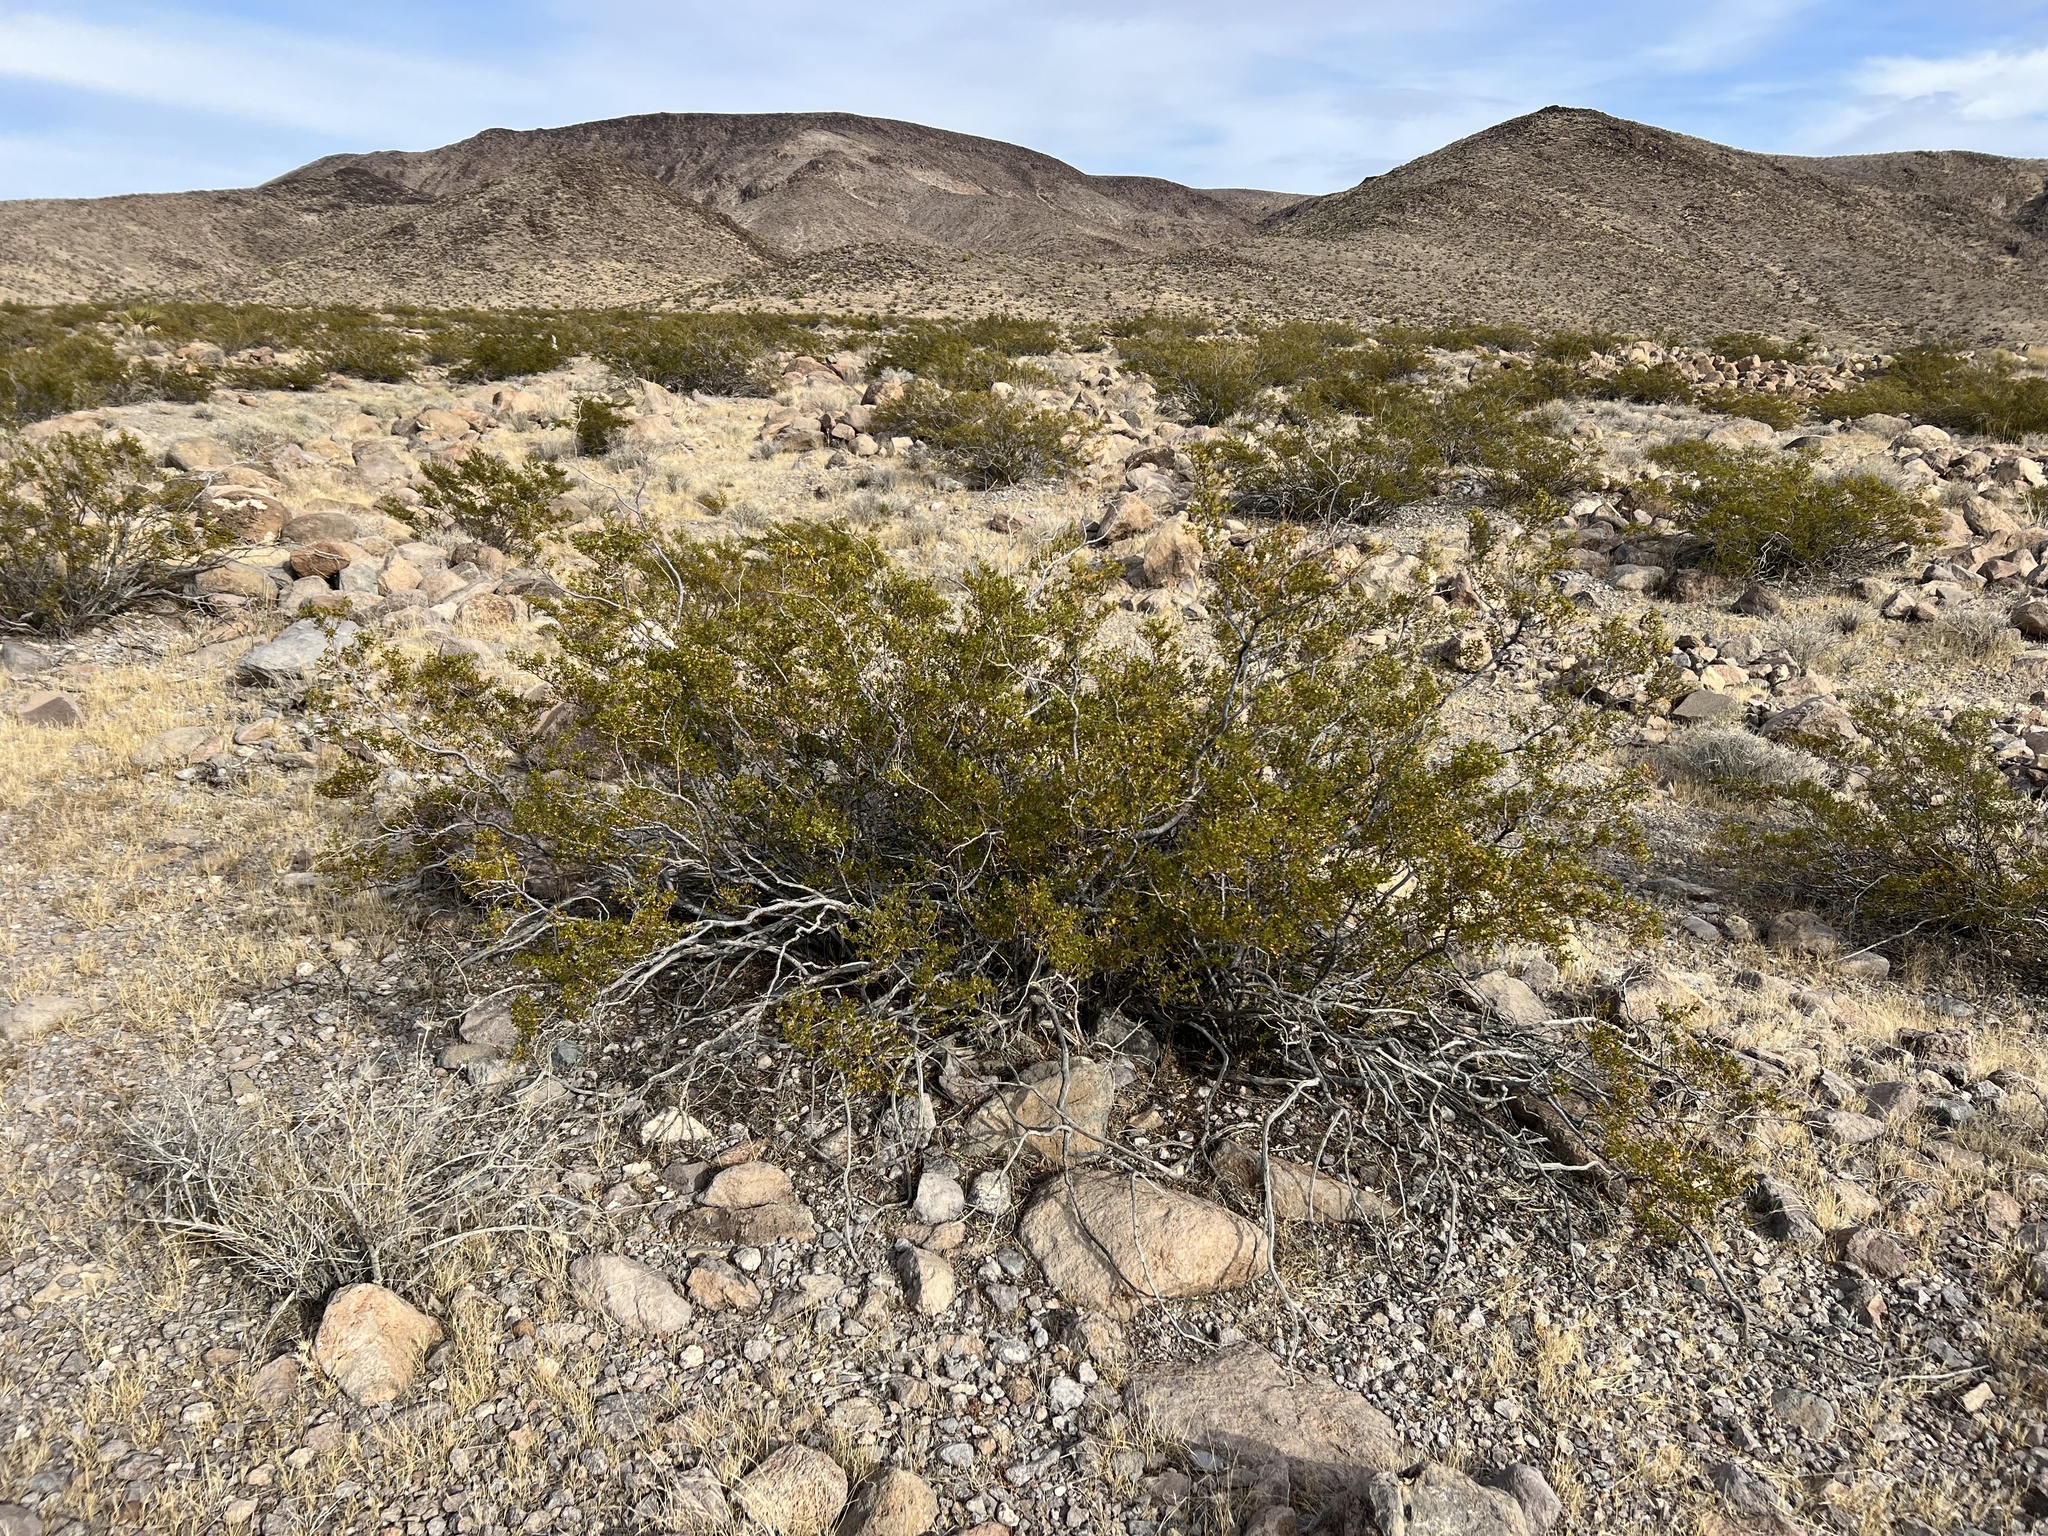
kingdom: Plantae
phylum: Tracheophyta
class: Magnoliopsida
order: Zygophyllales
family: Zygophyllaceae
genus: Larrea
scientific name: Larrea tridentata
